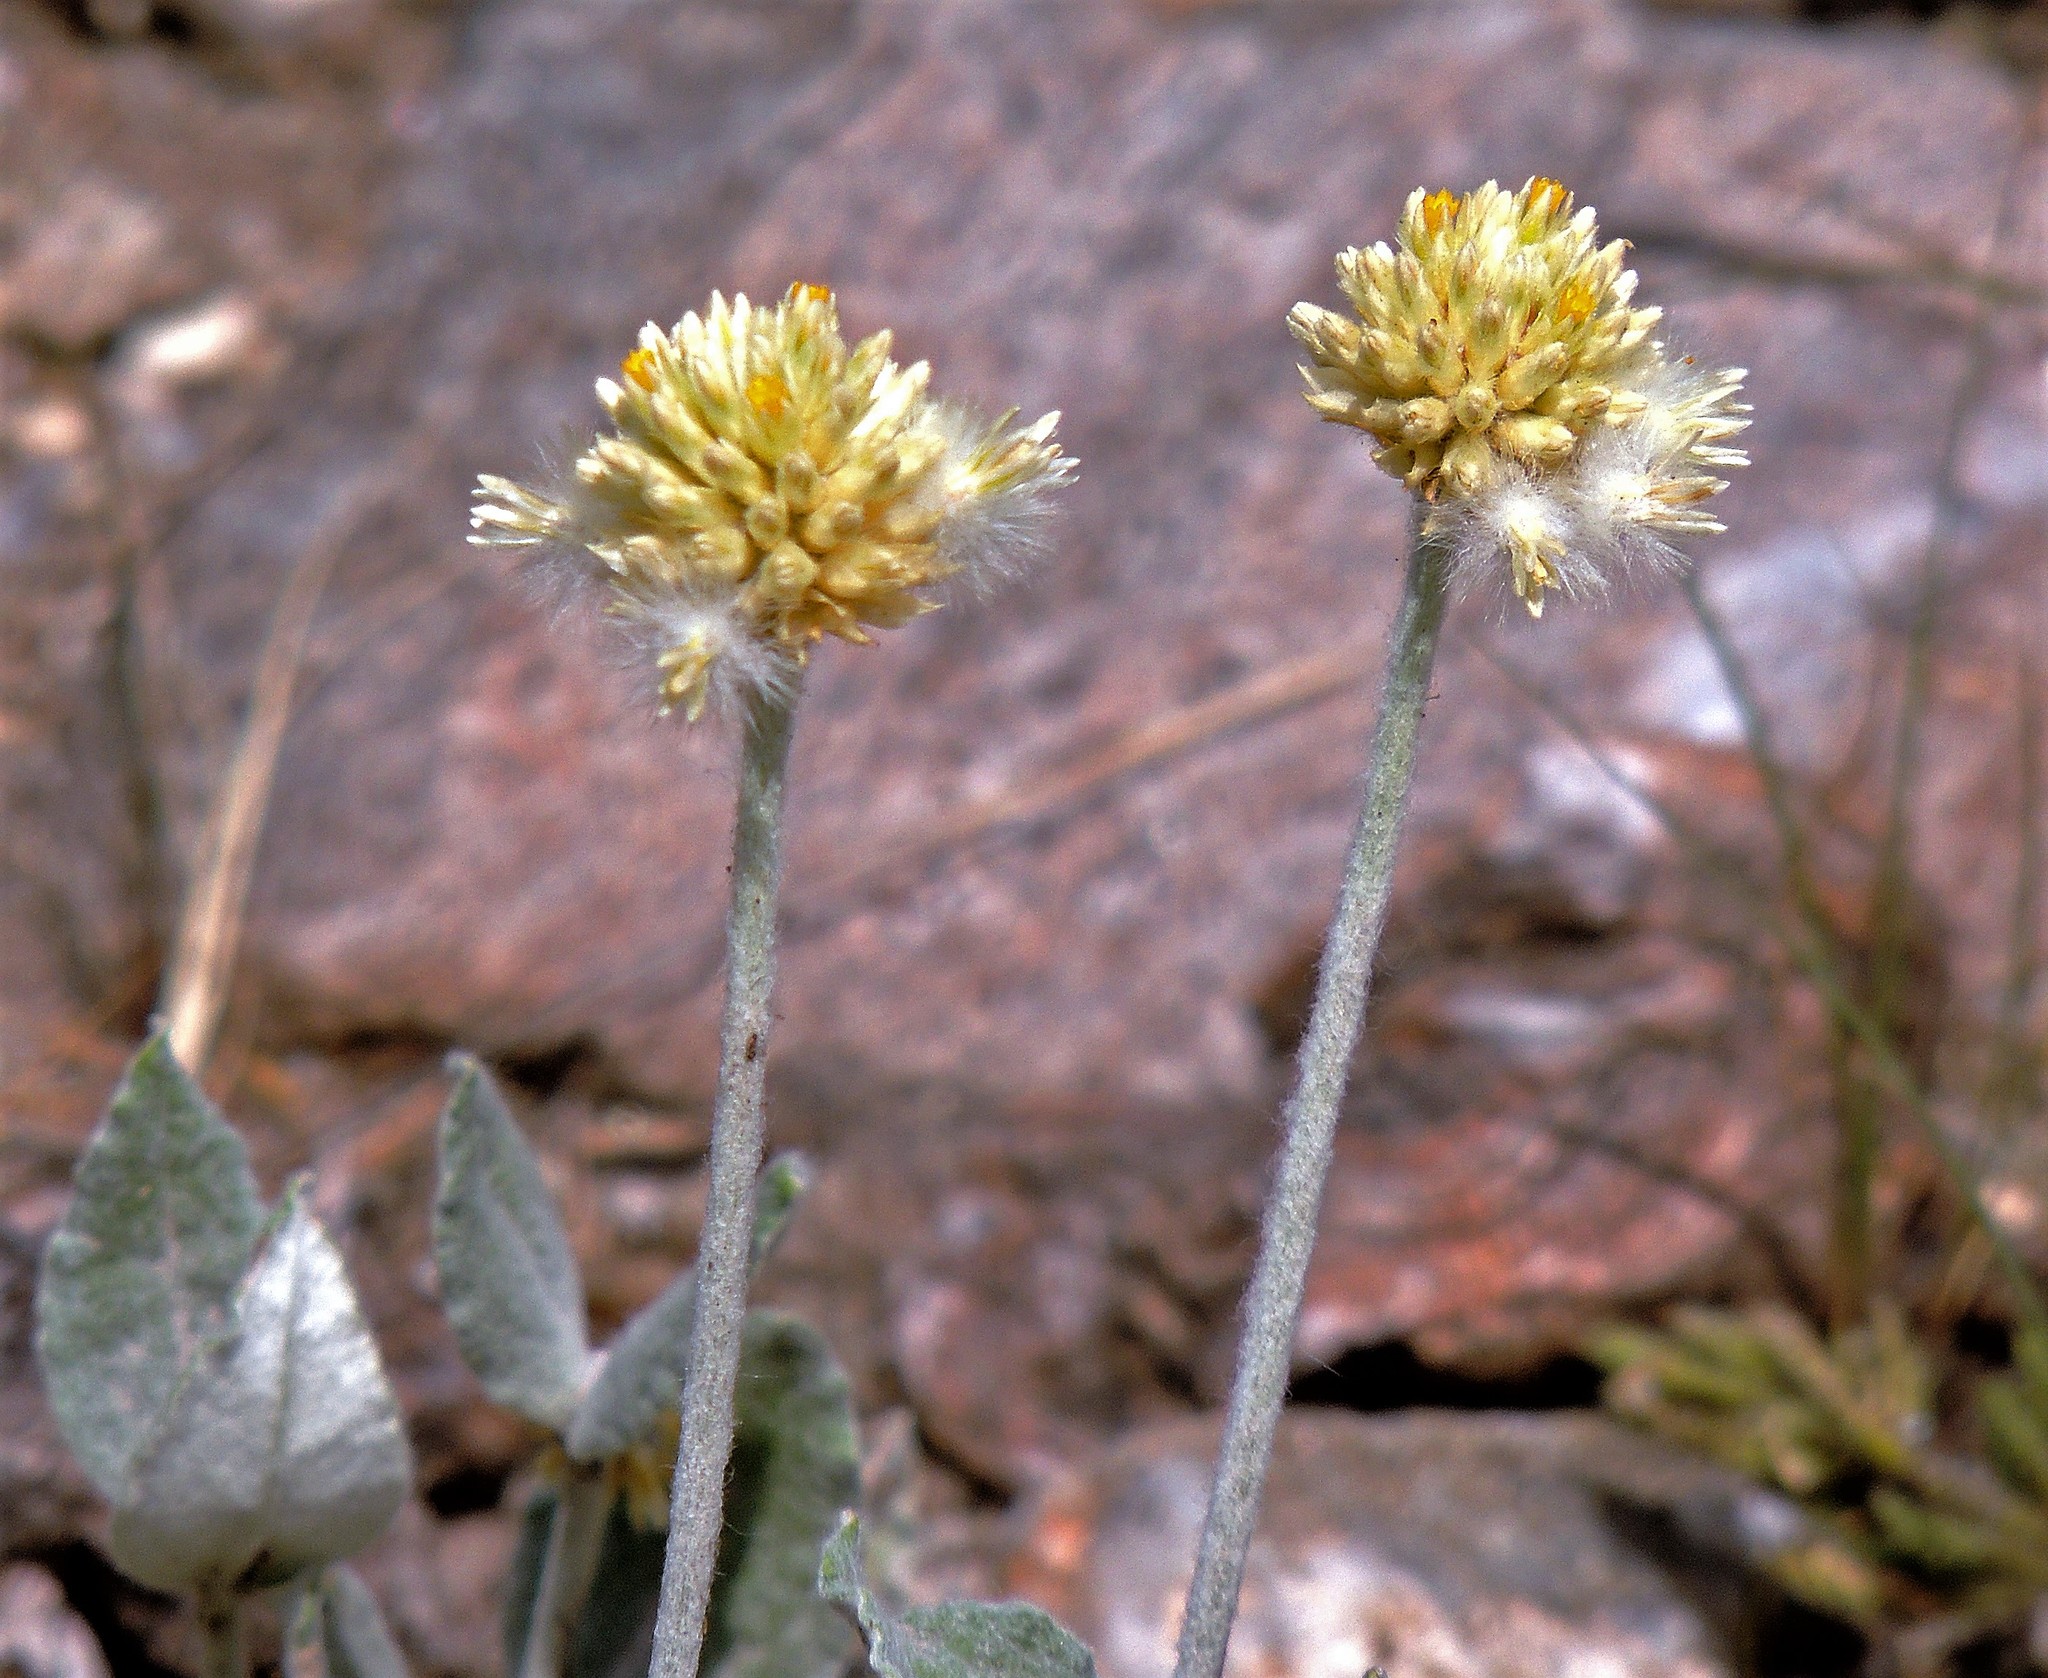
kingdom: Plantae
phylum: Tracheophyta
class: Magnoliopsida
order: Caryophyllales
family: Amaranthaceae
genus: Pfaffia
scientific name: Pfaffia gnaphalioides
